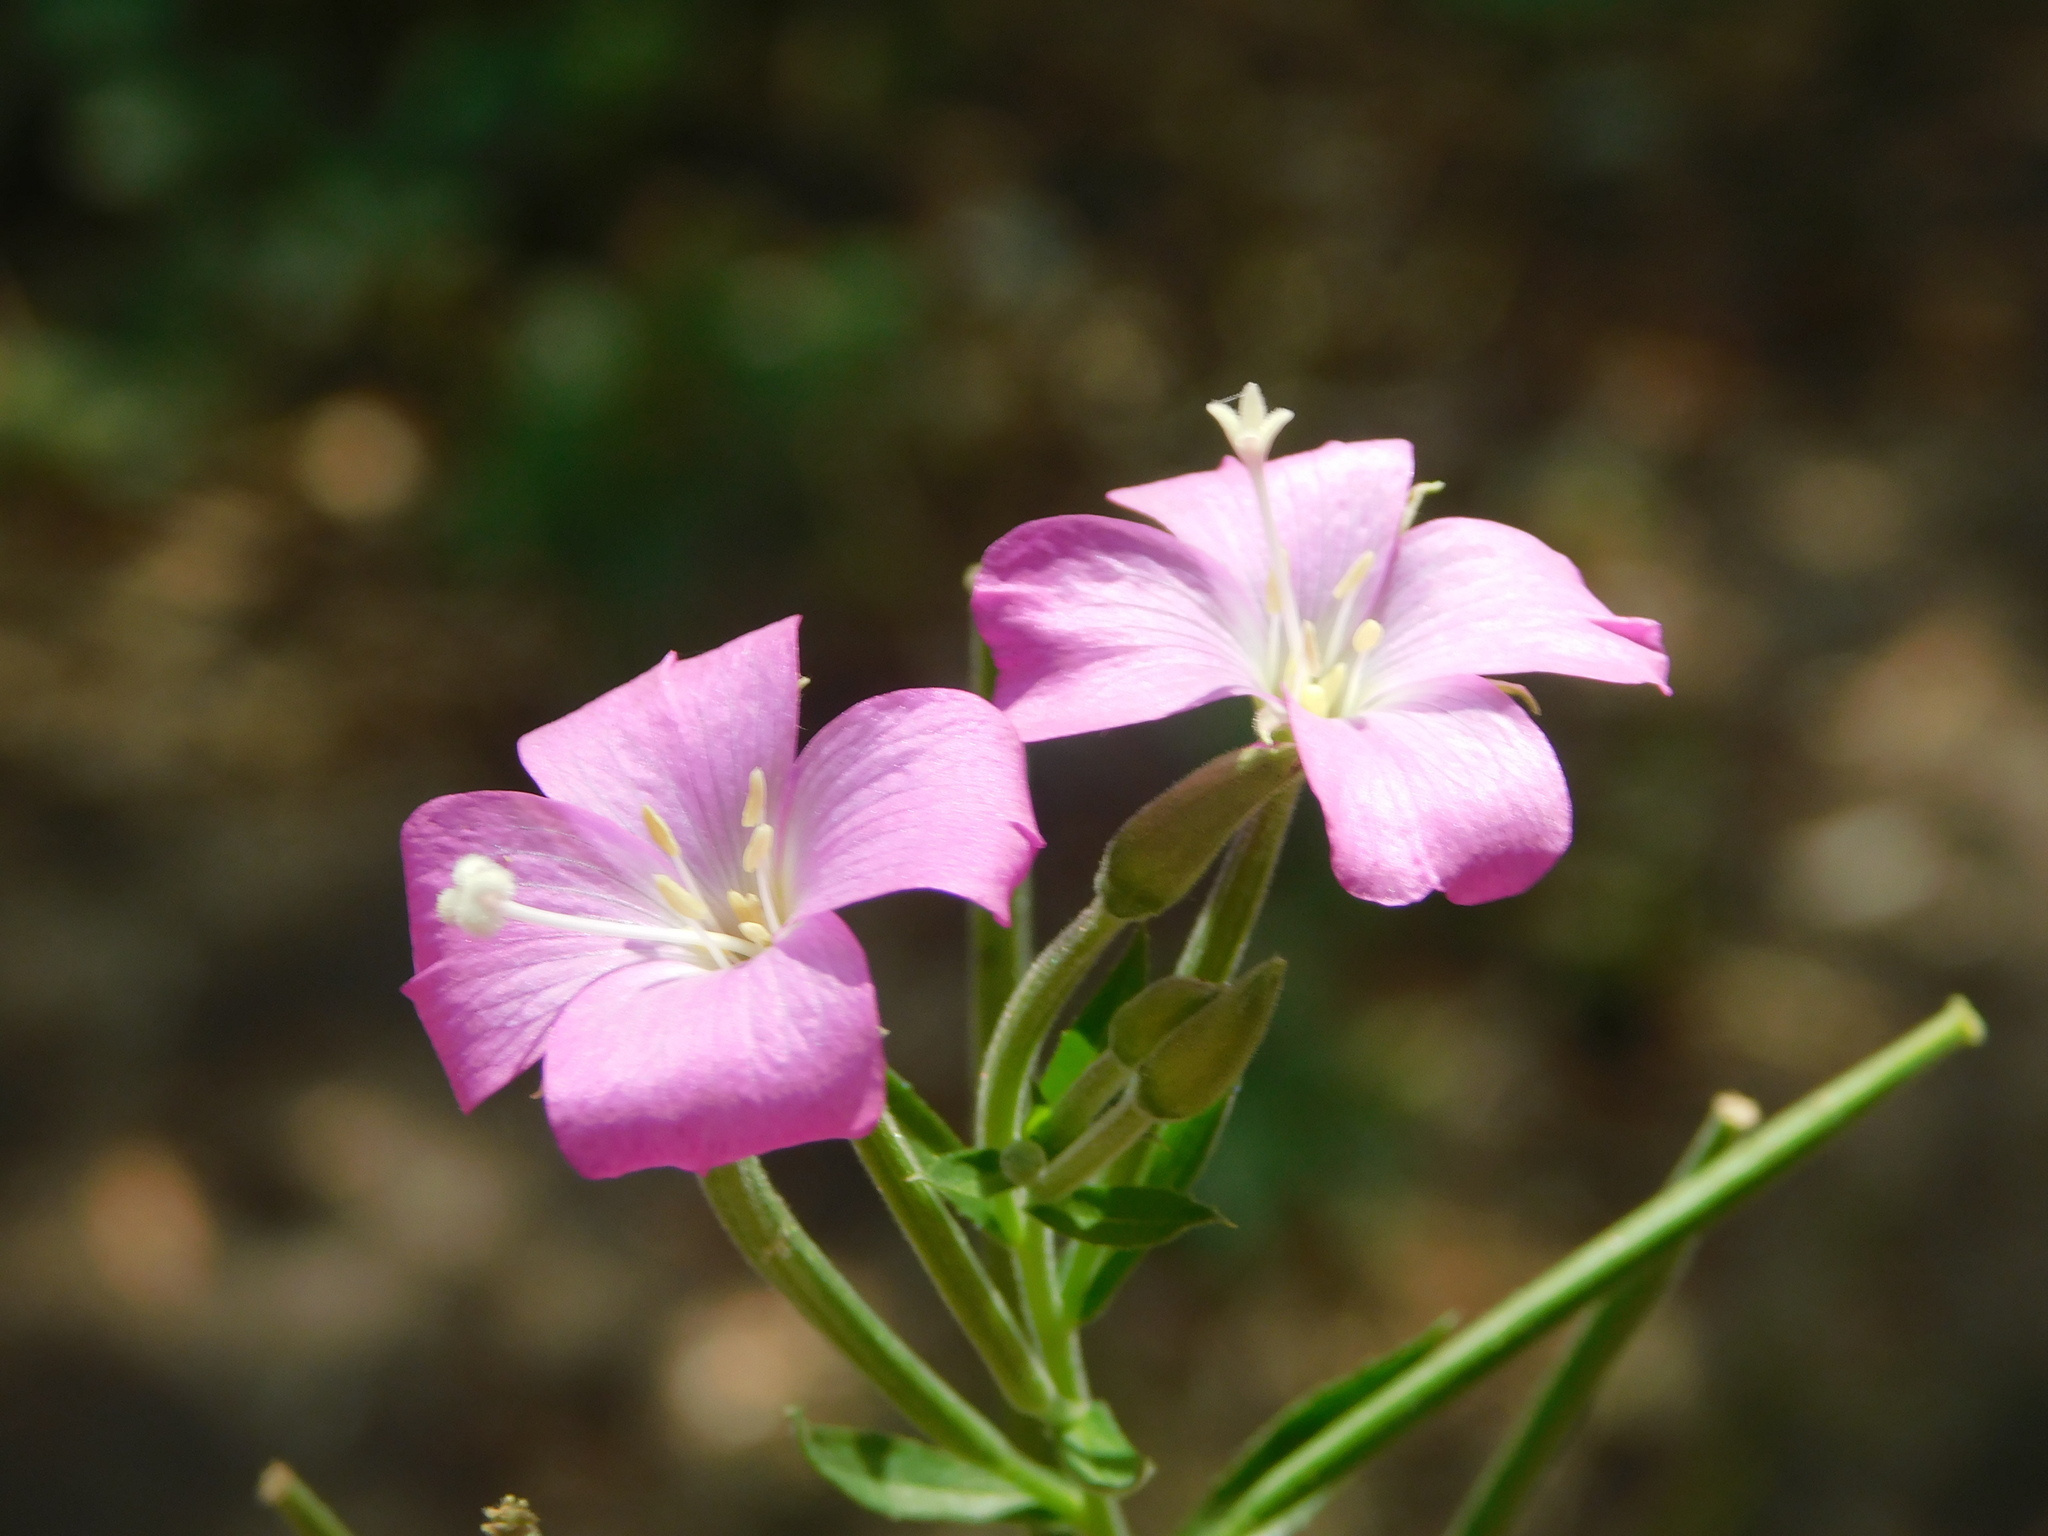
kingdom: Plantae
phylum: Tracheophyta
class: Magnoliopsida
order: Myrtales
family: Onagraceae
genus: Epilobium
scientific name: Epilobium hirsutum
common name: Great willowherb
